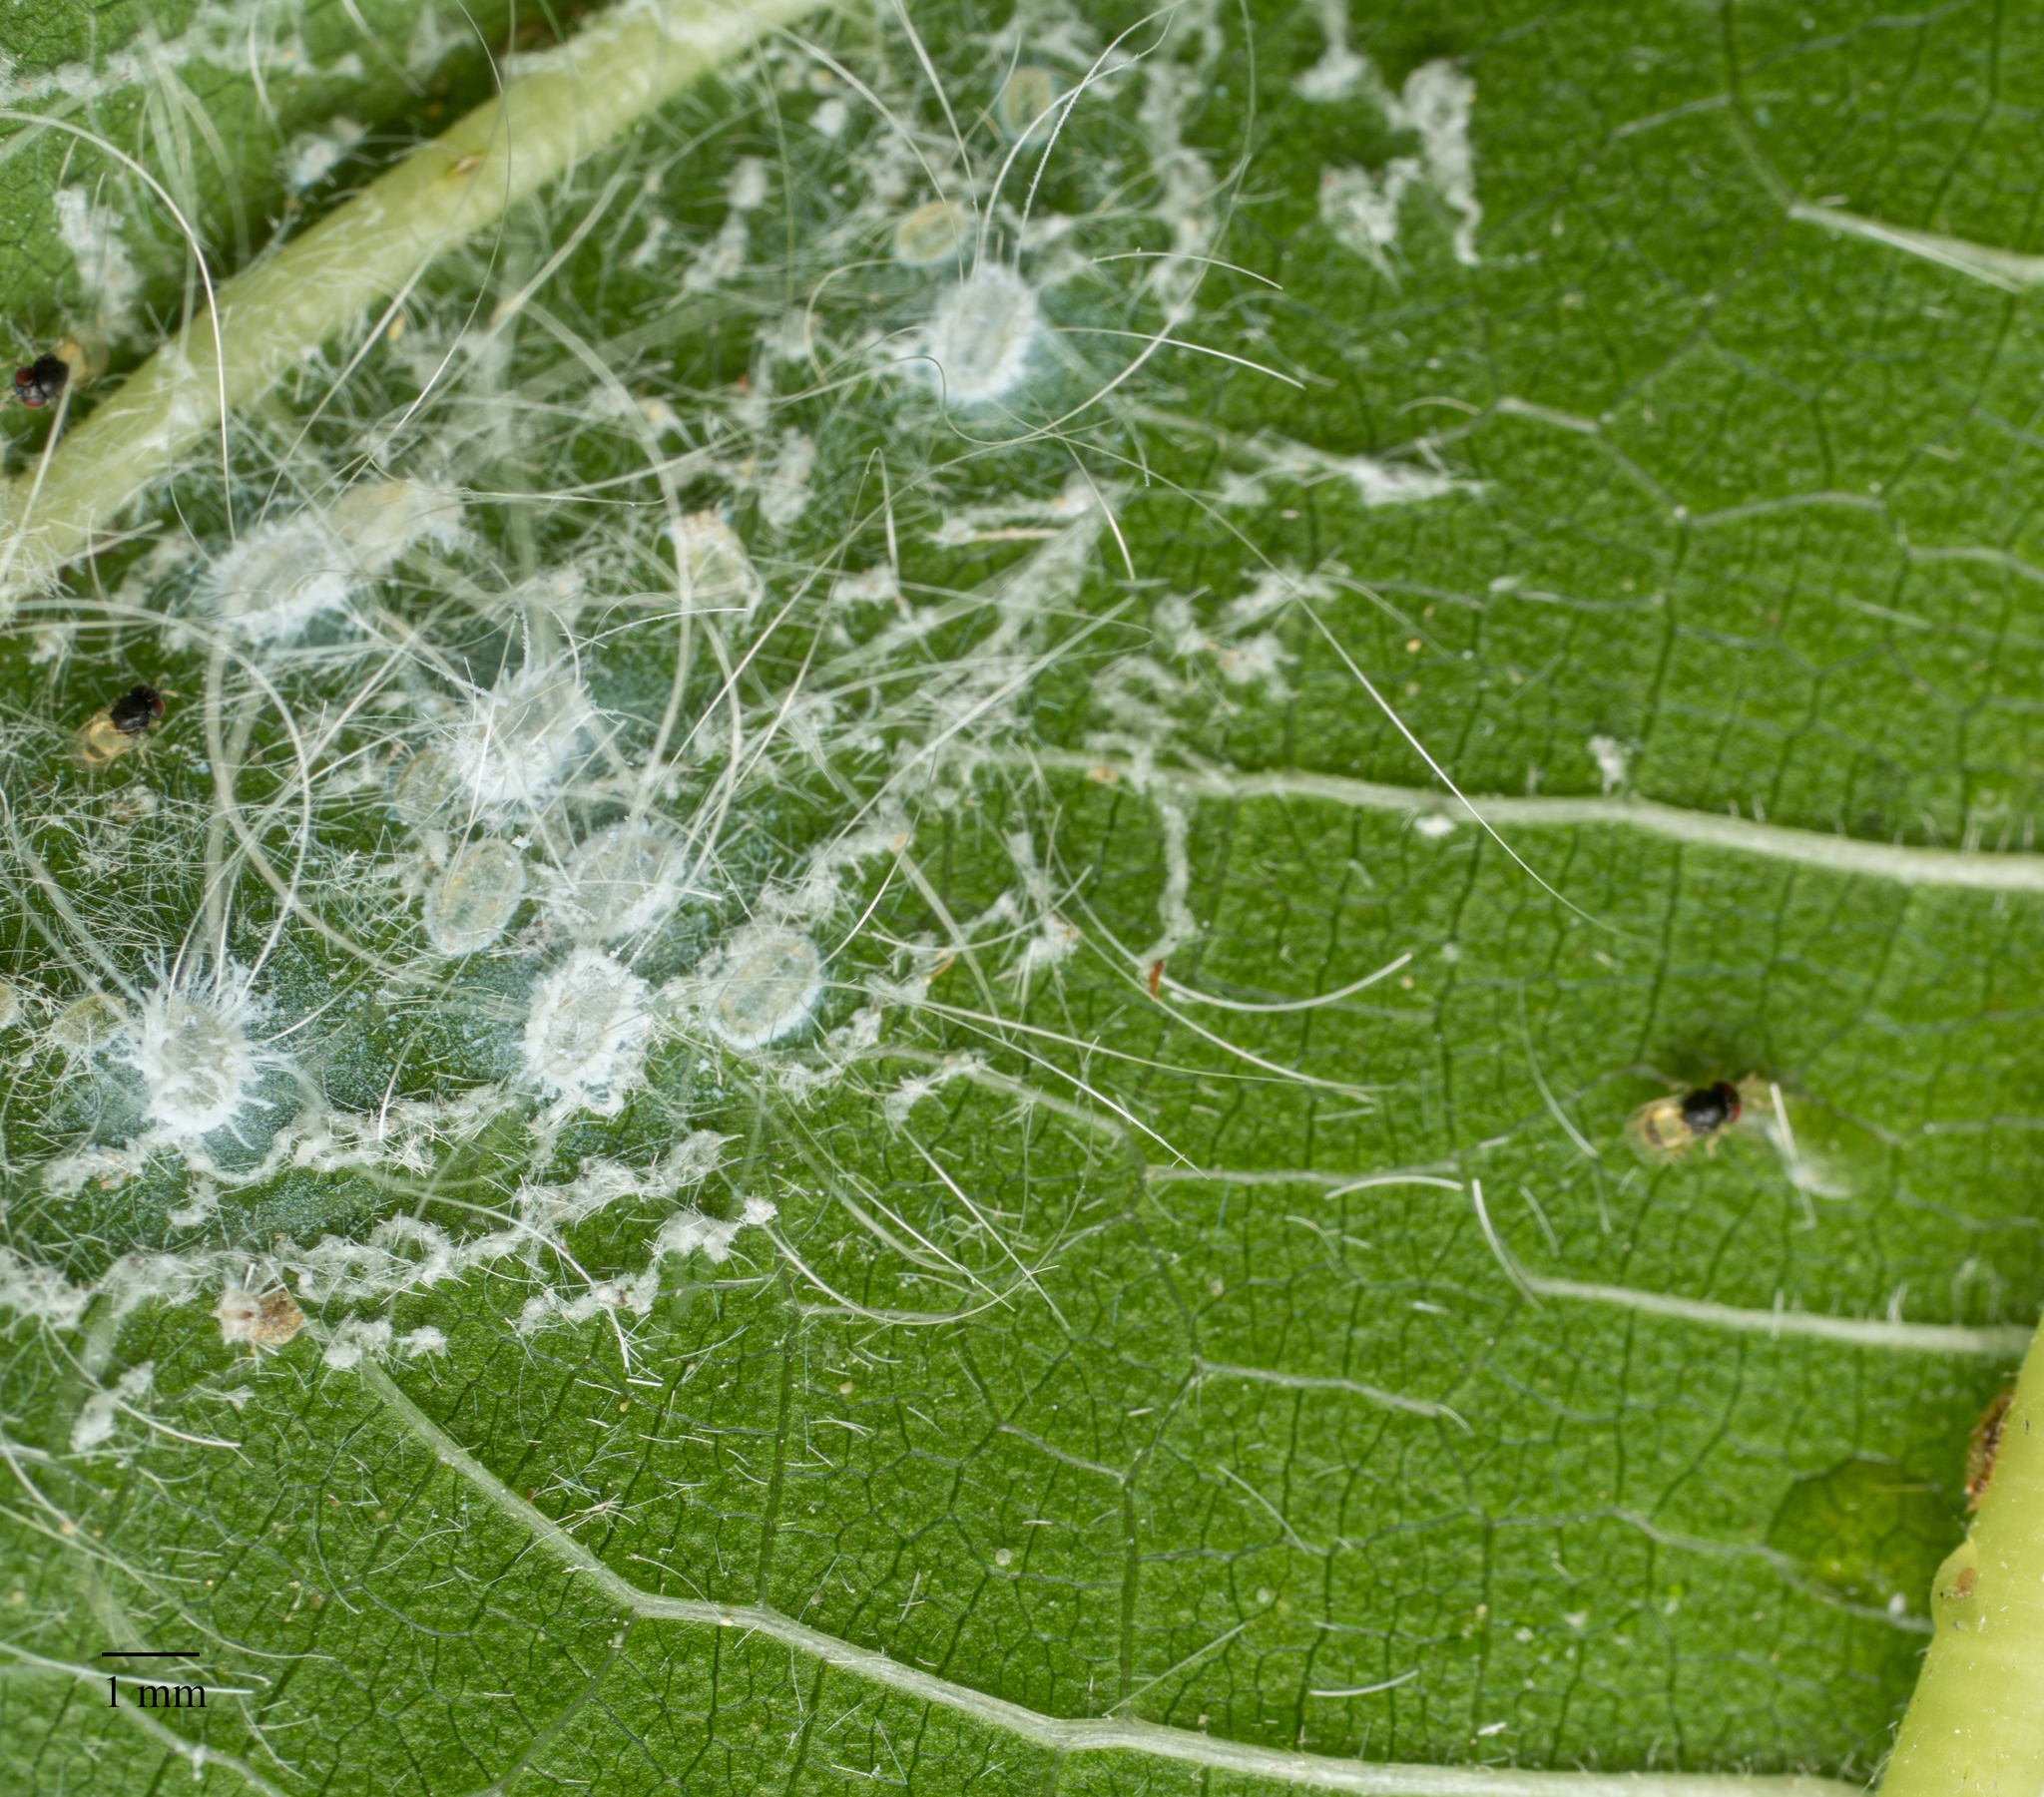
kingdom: Animalia
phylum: Arthropoda
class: Insecta
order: Hemiptera
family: Aleyrodidae
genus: Aleurodicus
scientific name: Aleurodicus dugesii
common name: Giant whitefly
